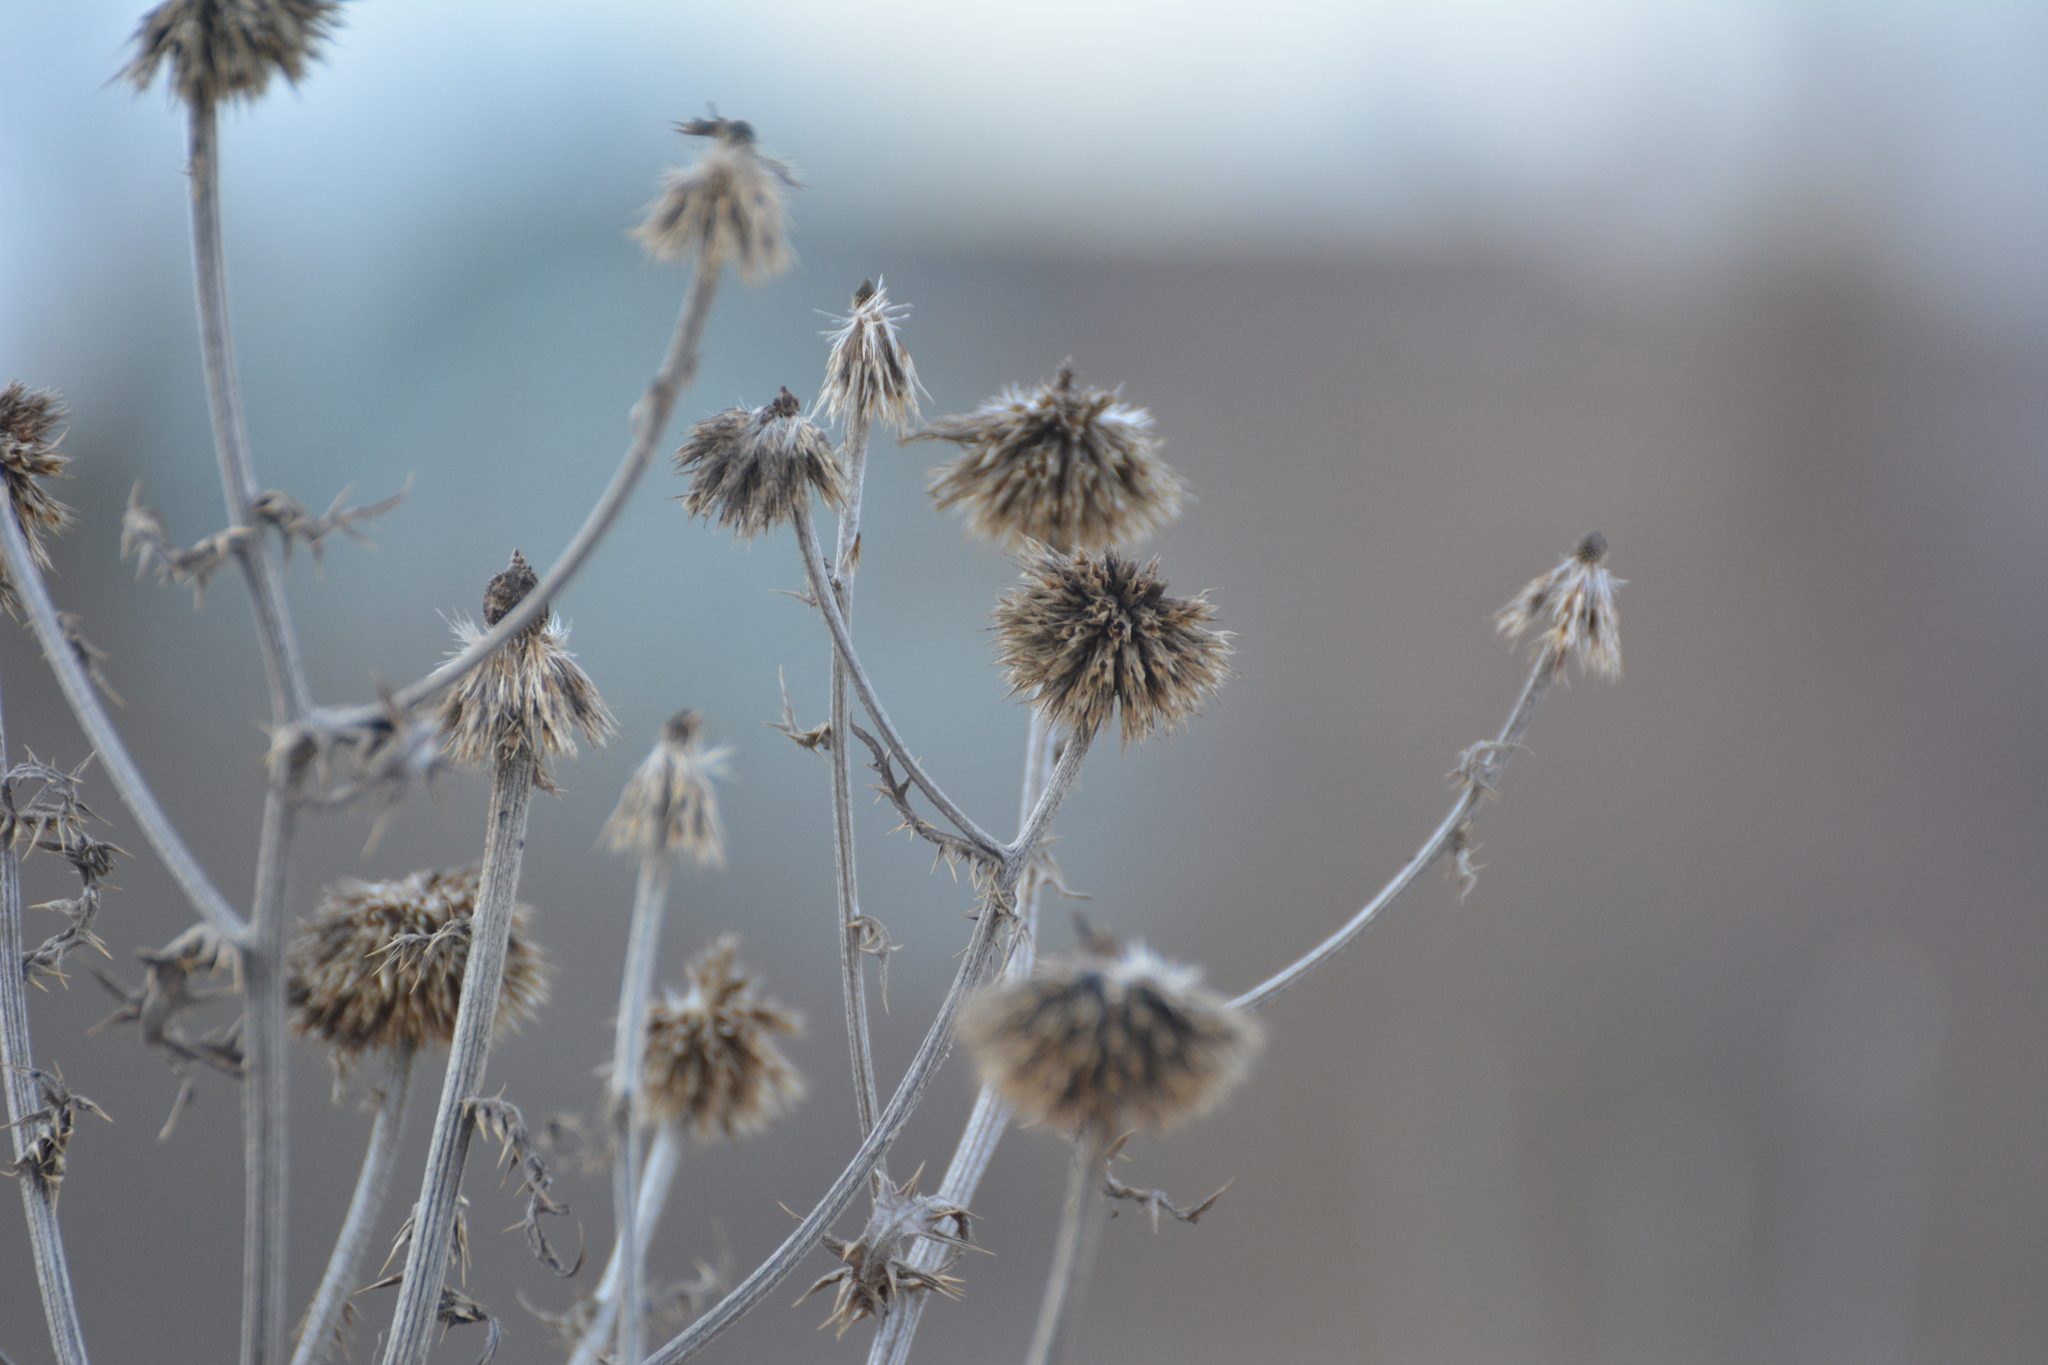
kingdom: Plantae
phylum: Tracheophyta
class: Magnoliopsida
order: Asterales
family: Asteraceae
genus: Echinops
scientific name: Echinops sphaerocephalus
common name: Glandular globe-thistle
